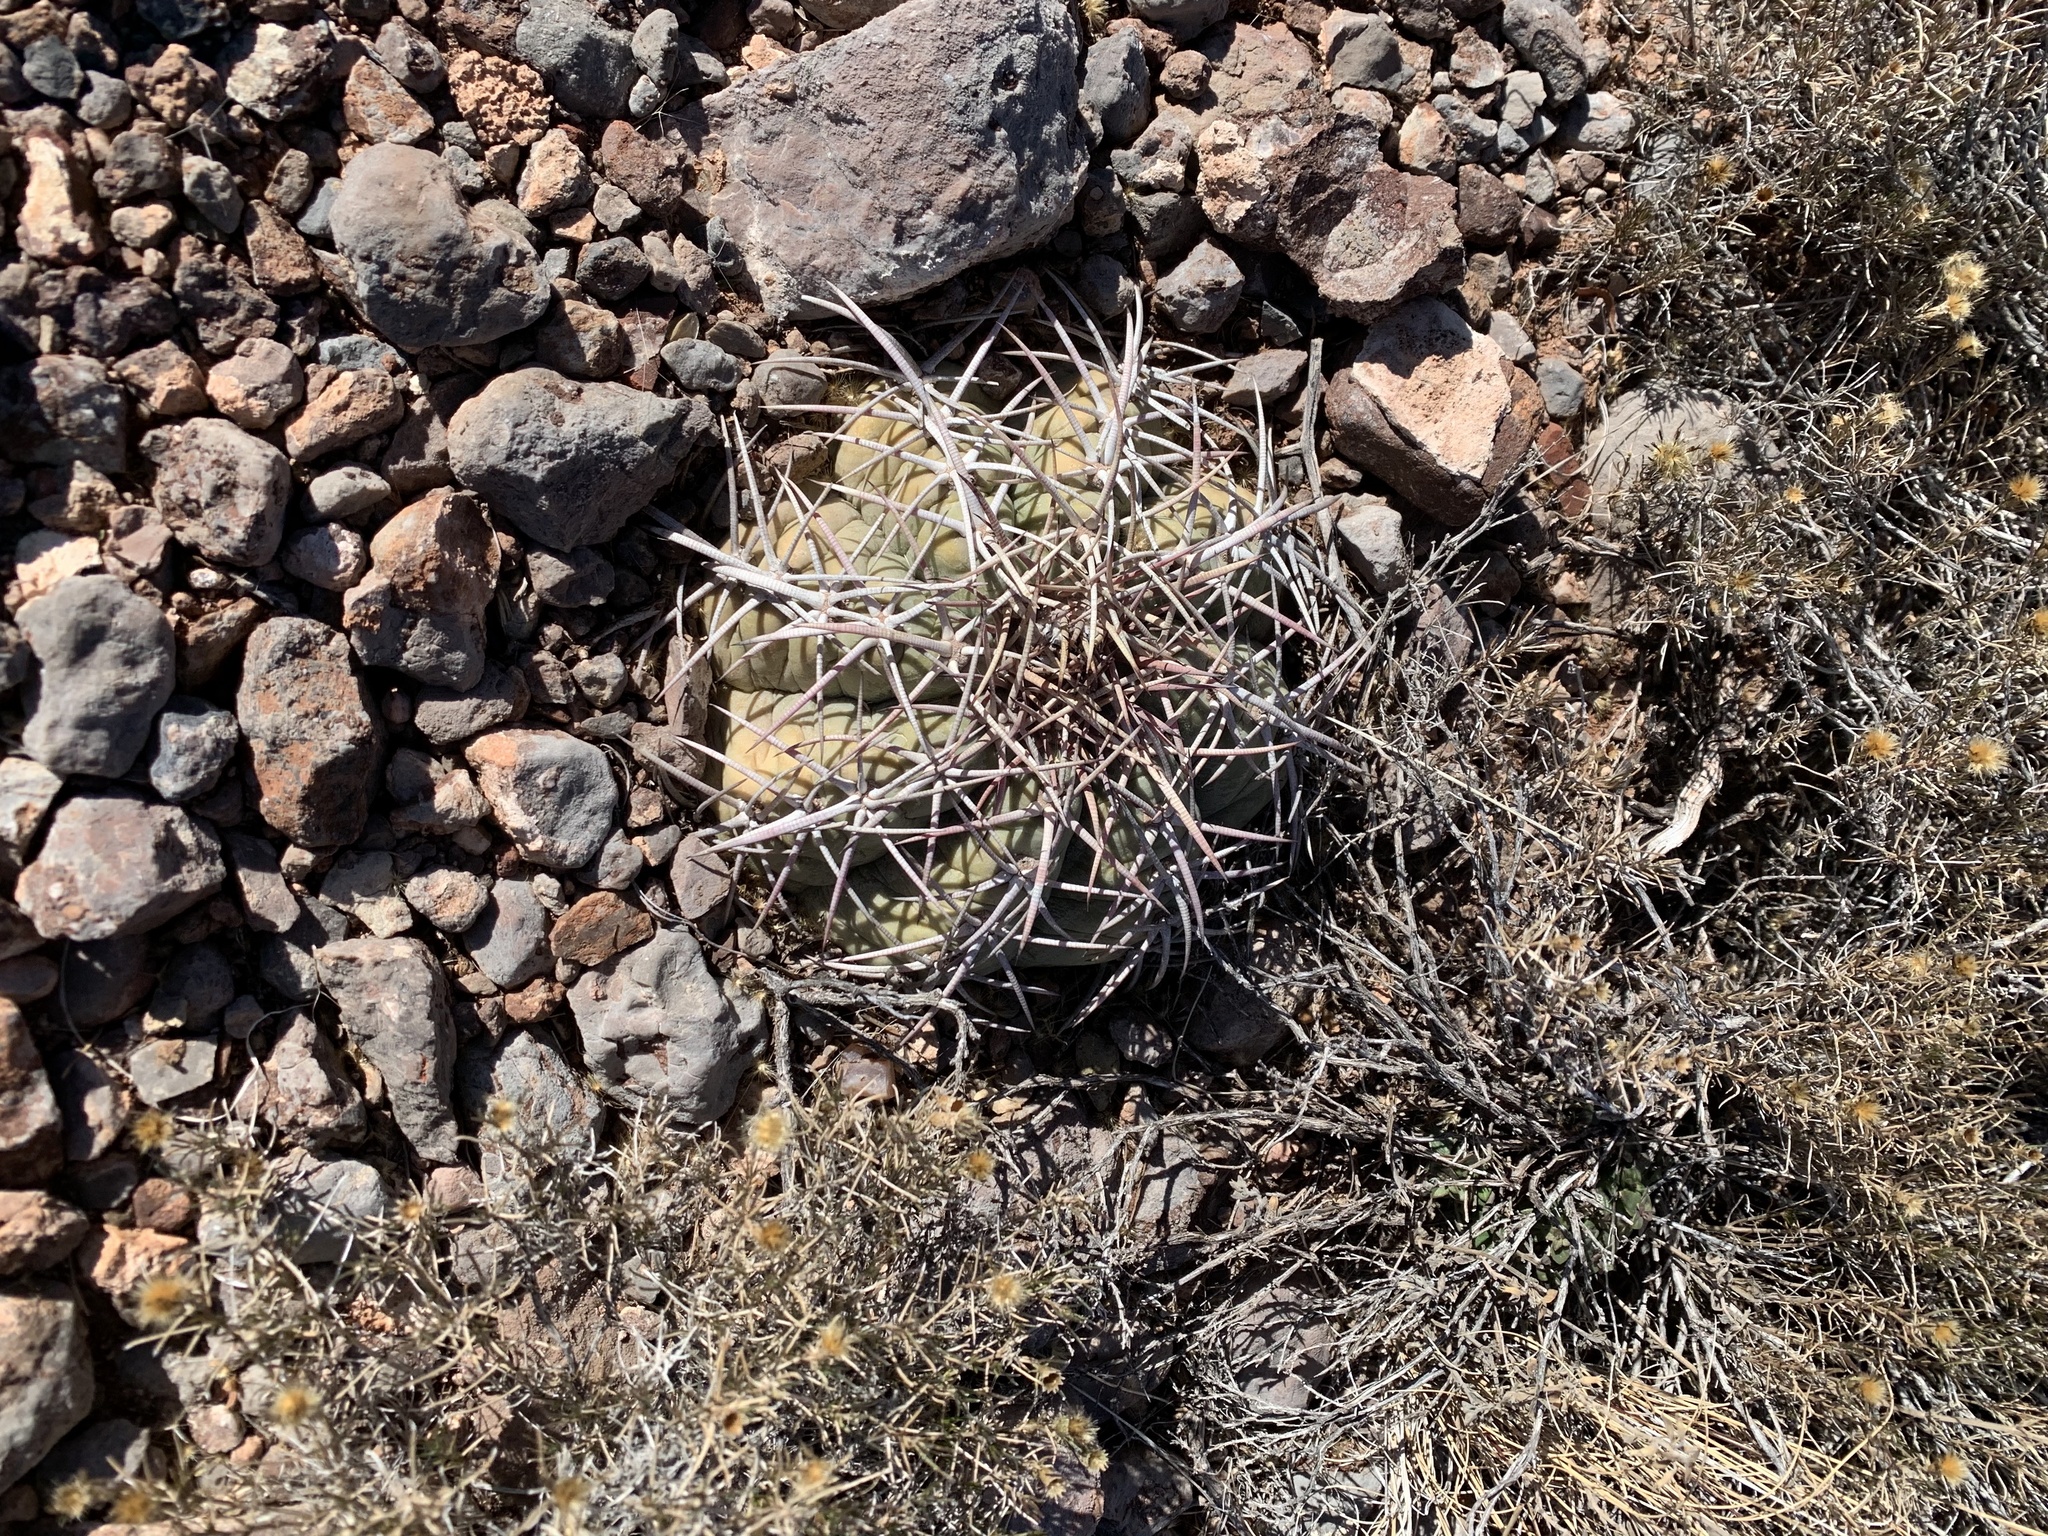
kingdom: Plantae
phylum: Tracheophyta
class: Magnoliopsida
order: Caryophyllales
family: Cactaceae
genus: Echinocactus
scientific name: Echinocactus horizonthalonius
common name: Devilshead
